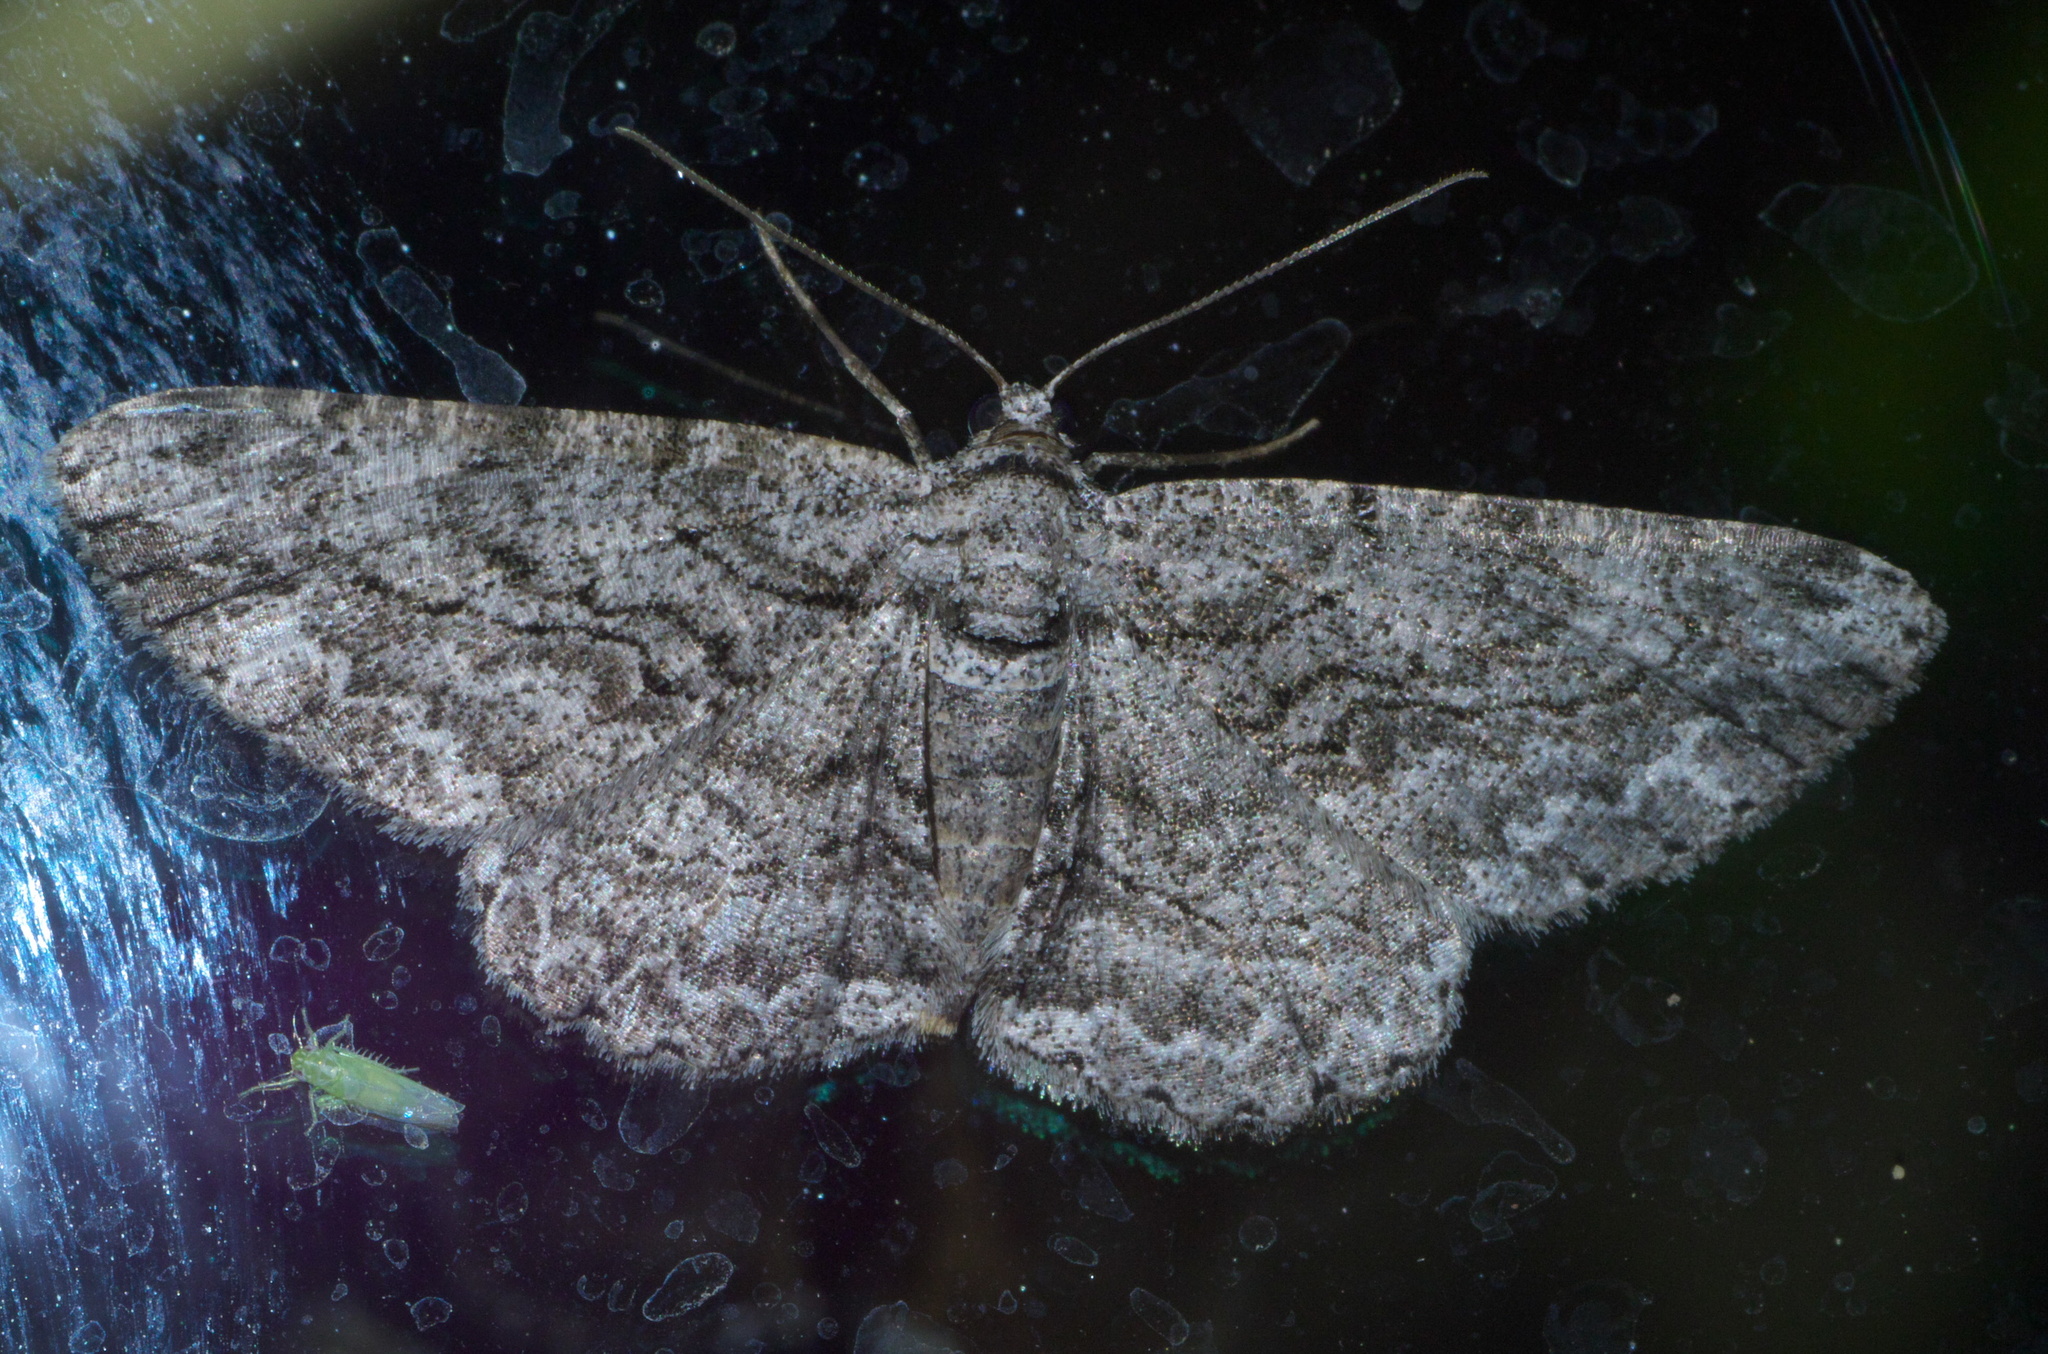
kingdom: Animalia
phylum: Arthropoda
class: Insecta
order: Lepidoptera
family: Geometridae
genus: Anavitrinella
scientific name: Anavitrinella pampinaria
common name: Common gray
